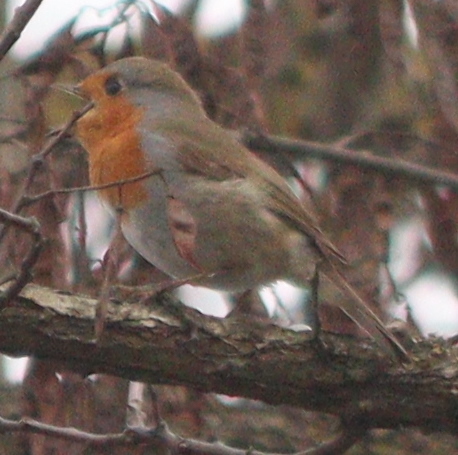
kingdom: Animalia
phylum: Chordata
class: Aves
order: Passeriformes
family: Muscicapidae
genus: Erithacus
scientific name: Erithacus rubecula
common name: European robin
